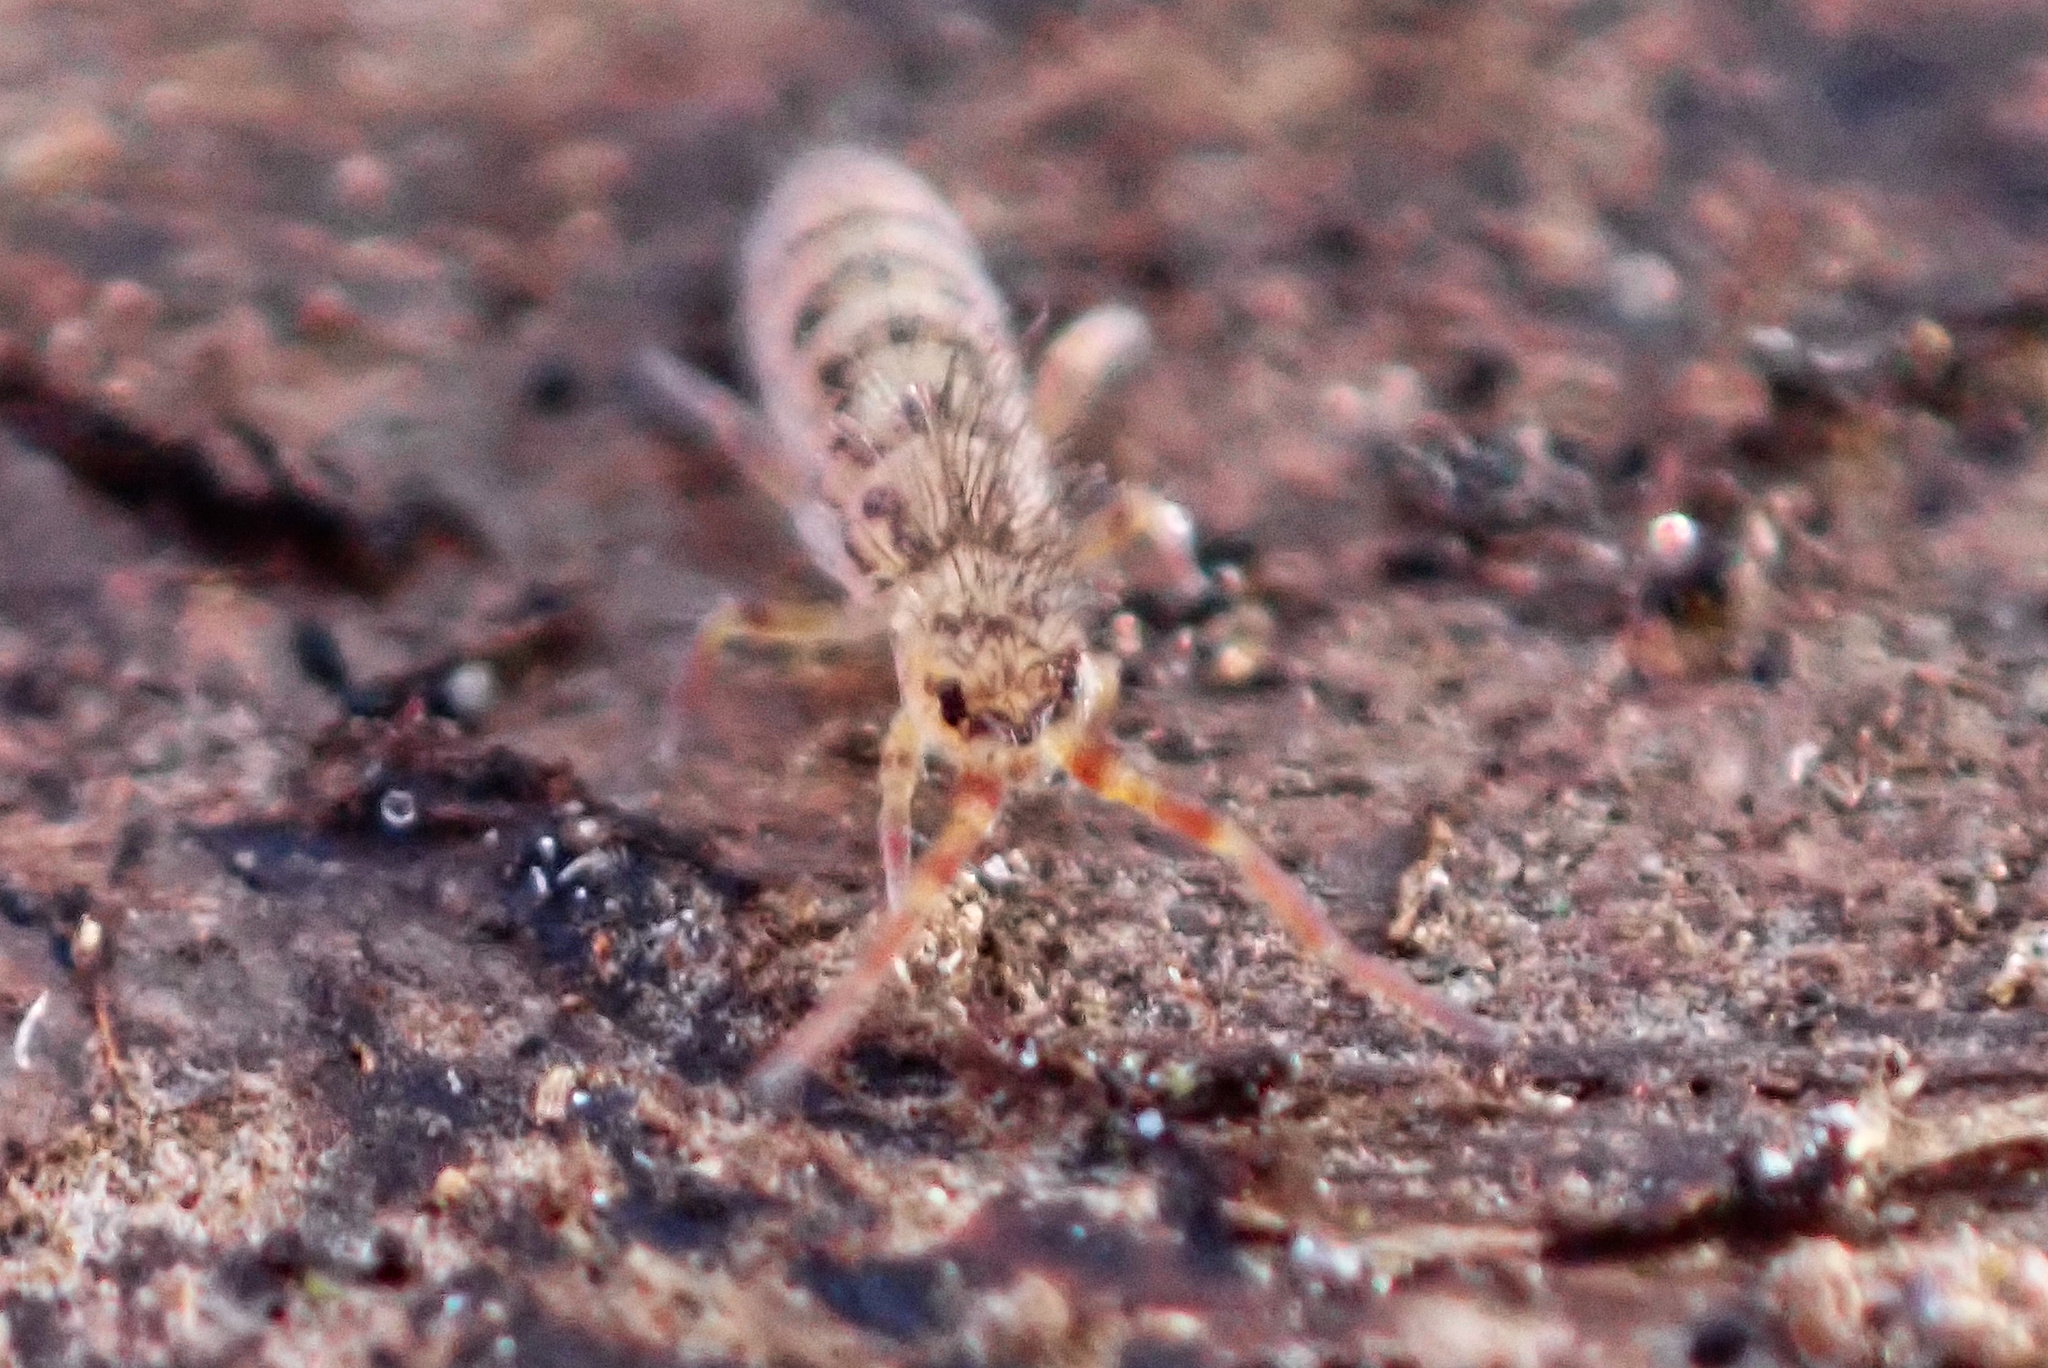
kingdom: Animalia
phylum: Arthropoda
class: Collembola
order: Entomobryomorpha
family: Orchesellidae
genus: Orchesella
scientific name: Orchesella villosa
